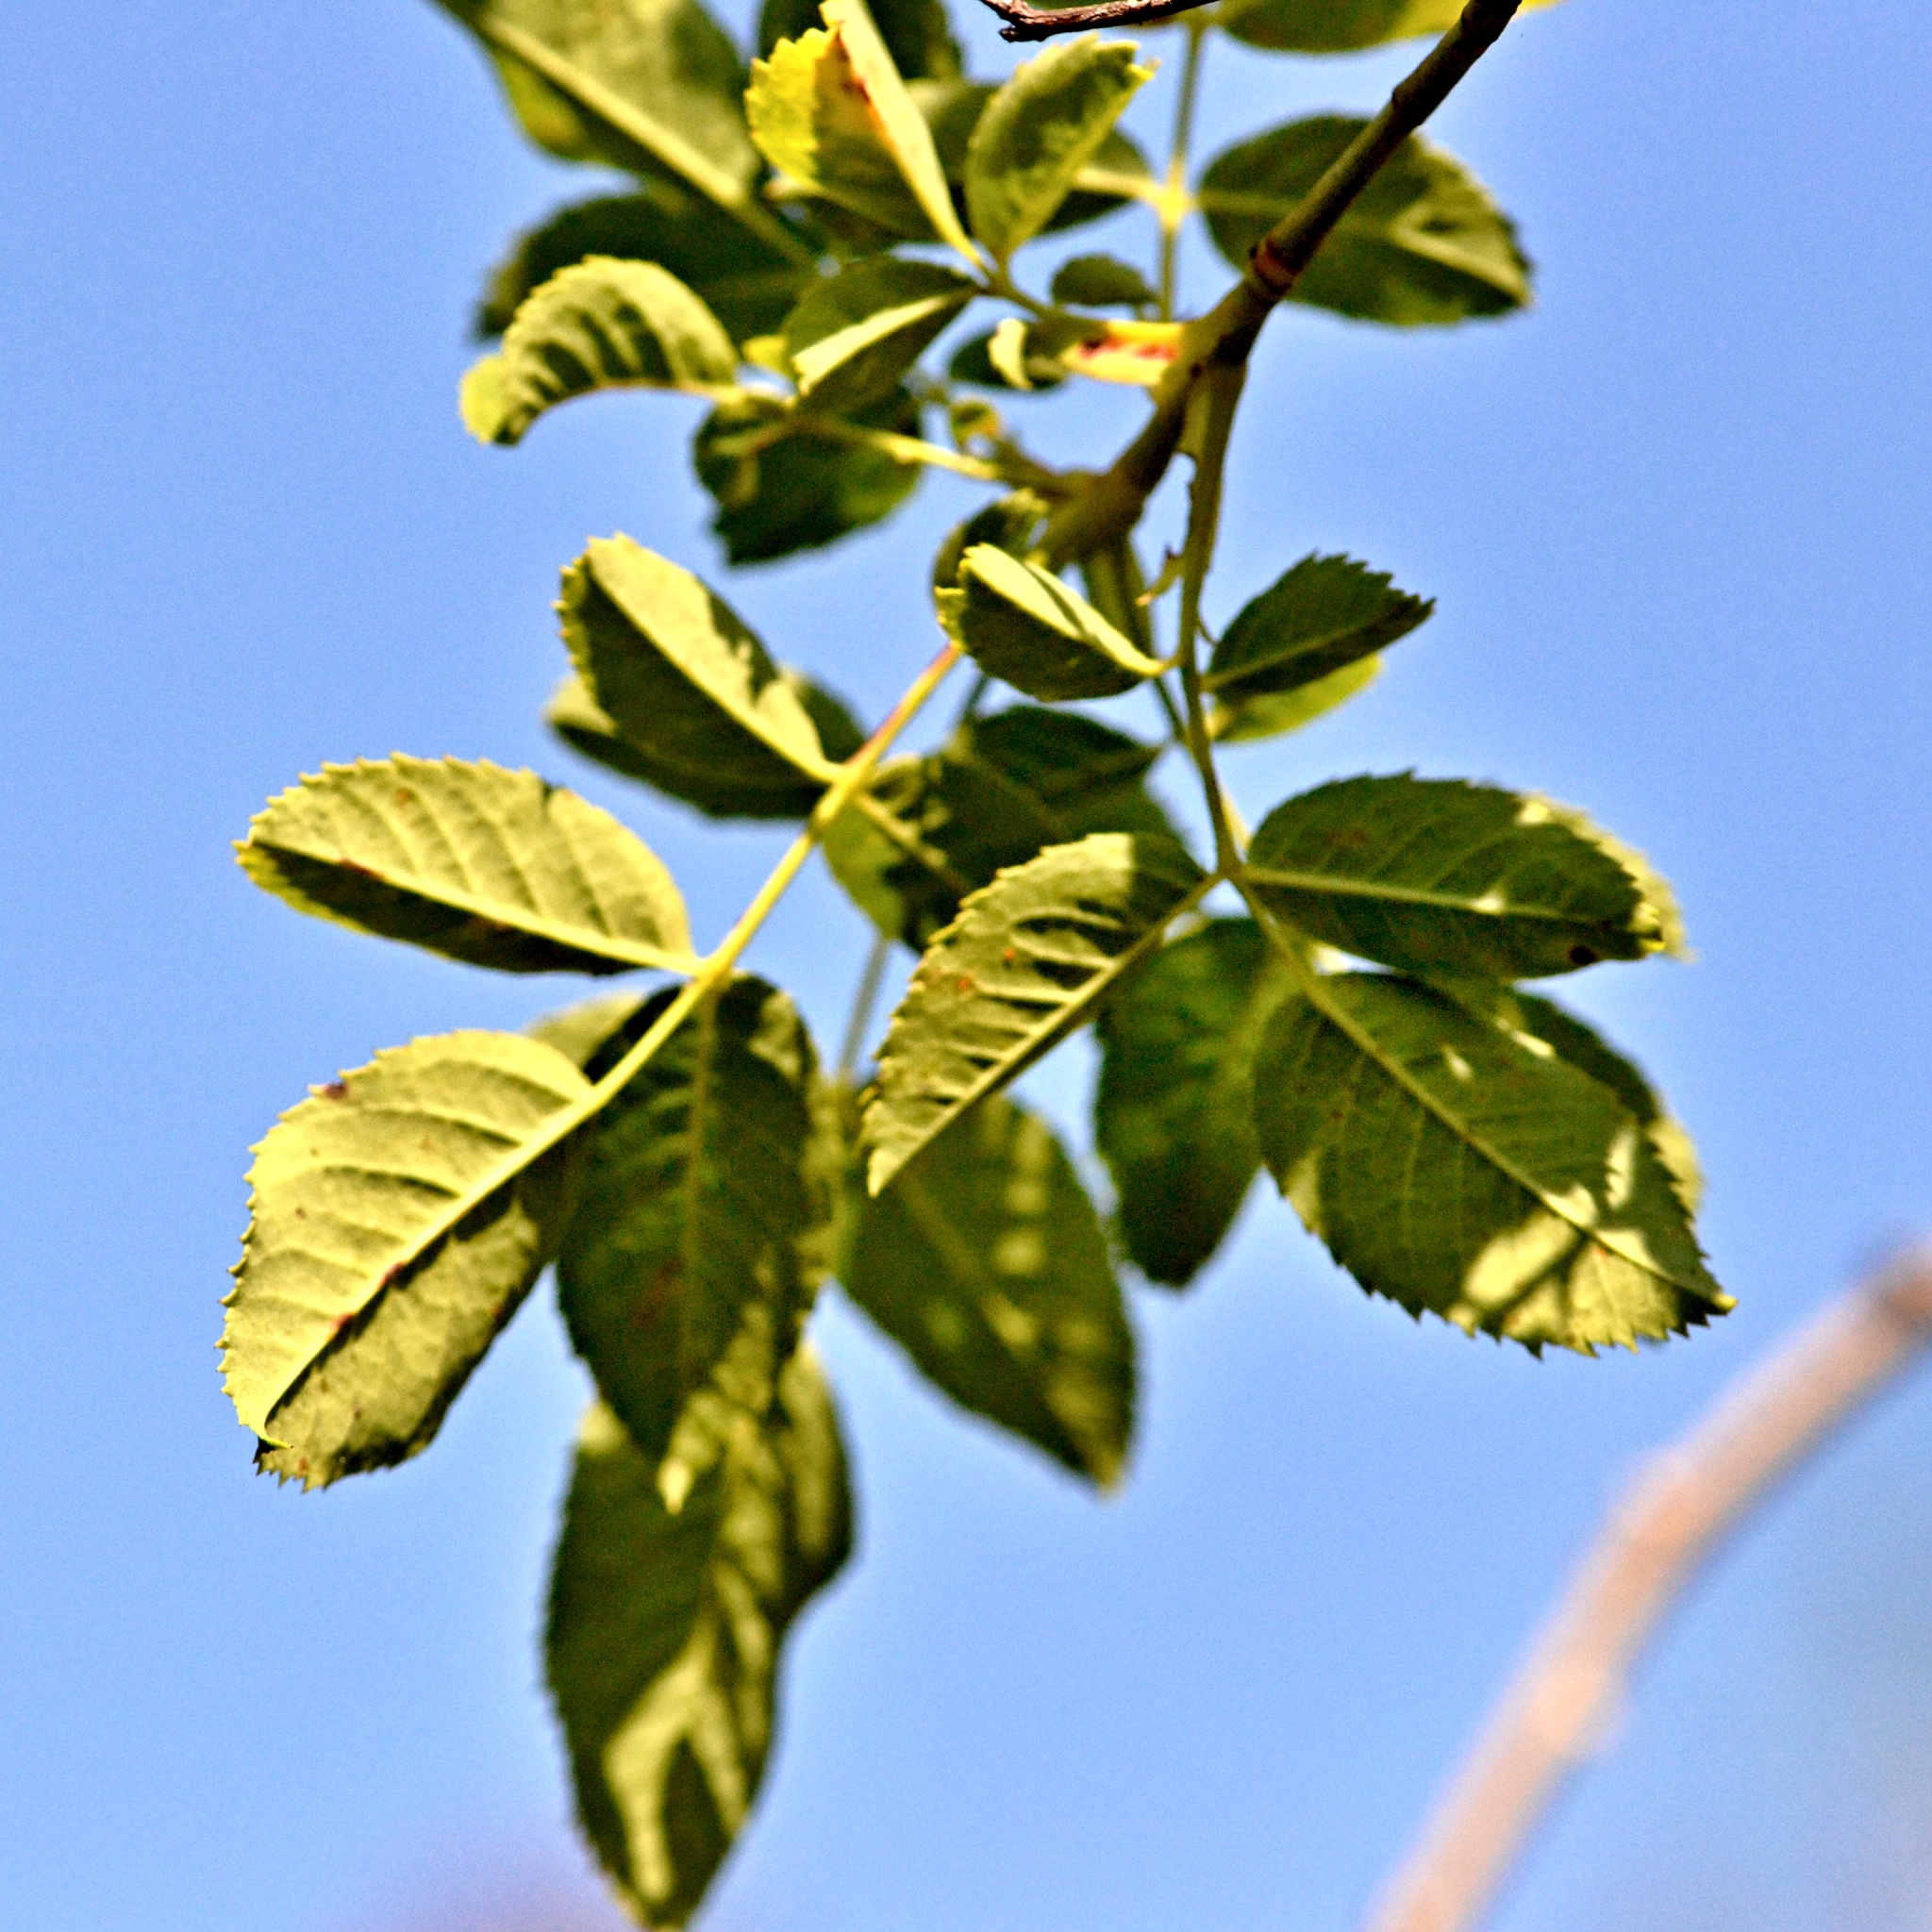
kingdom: Plantae
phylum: Tracheophyta
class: Magnoliopsida
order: Rosales
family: Rosaceae
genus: Rosa
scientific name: Rosa canina
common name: Dog rose
